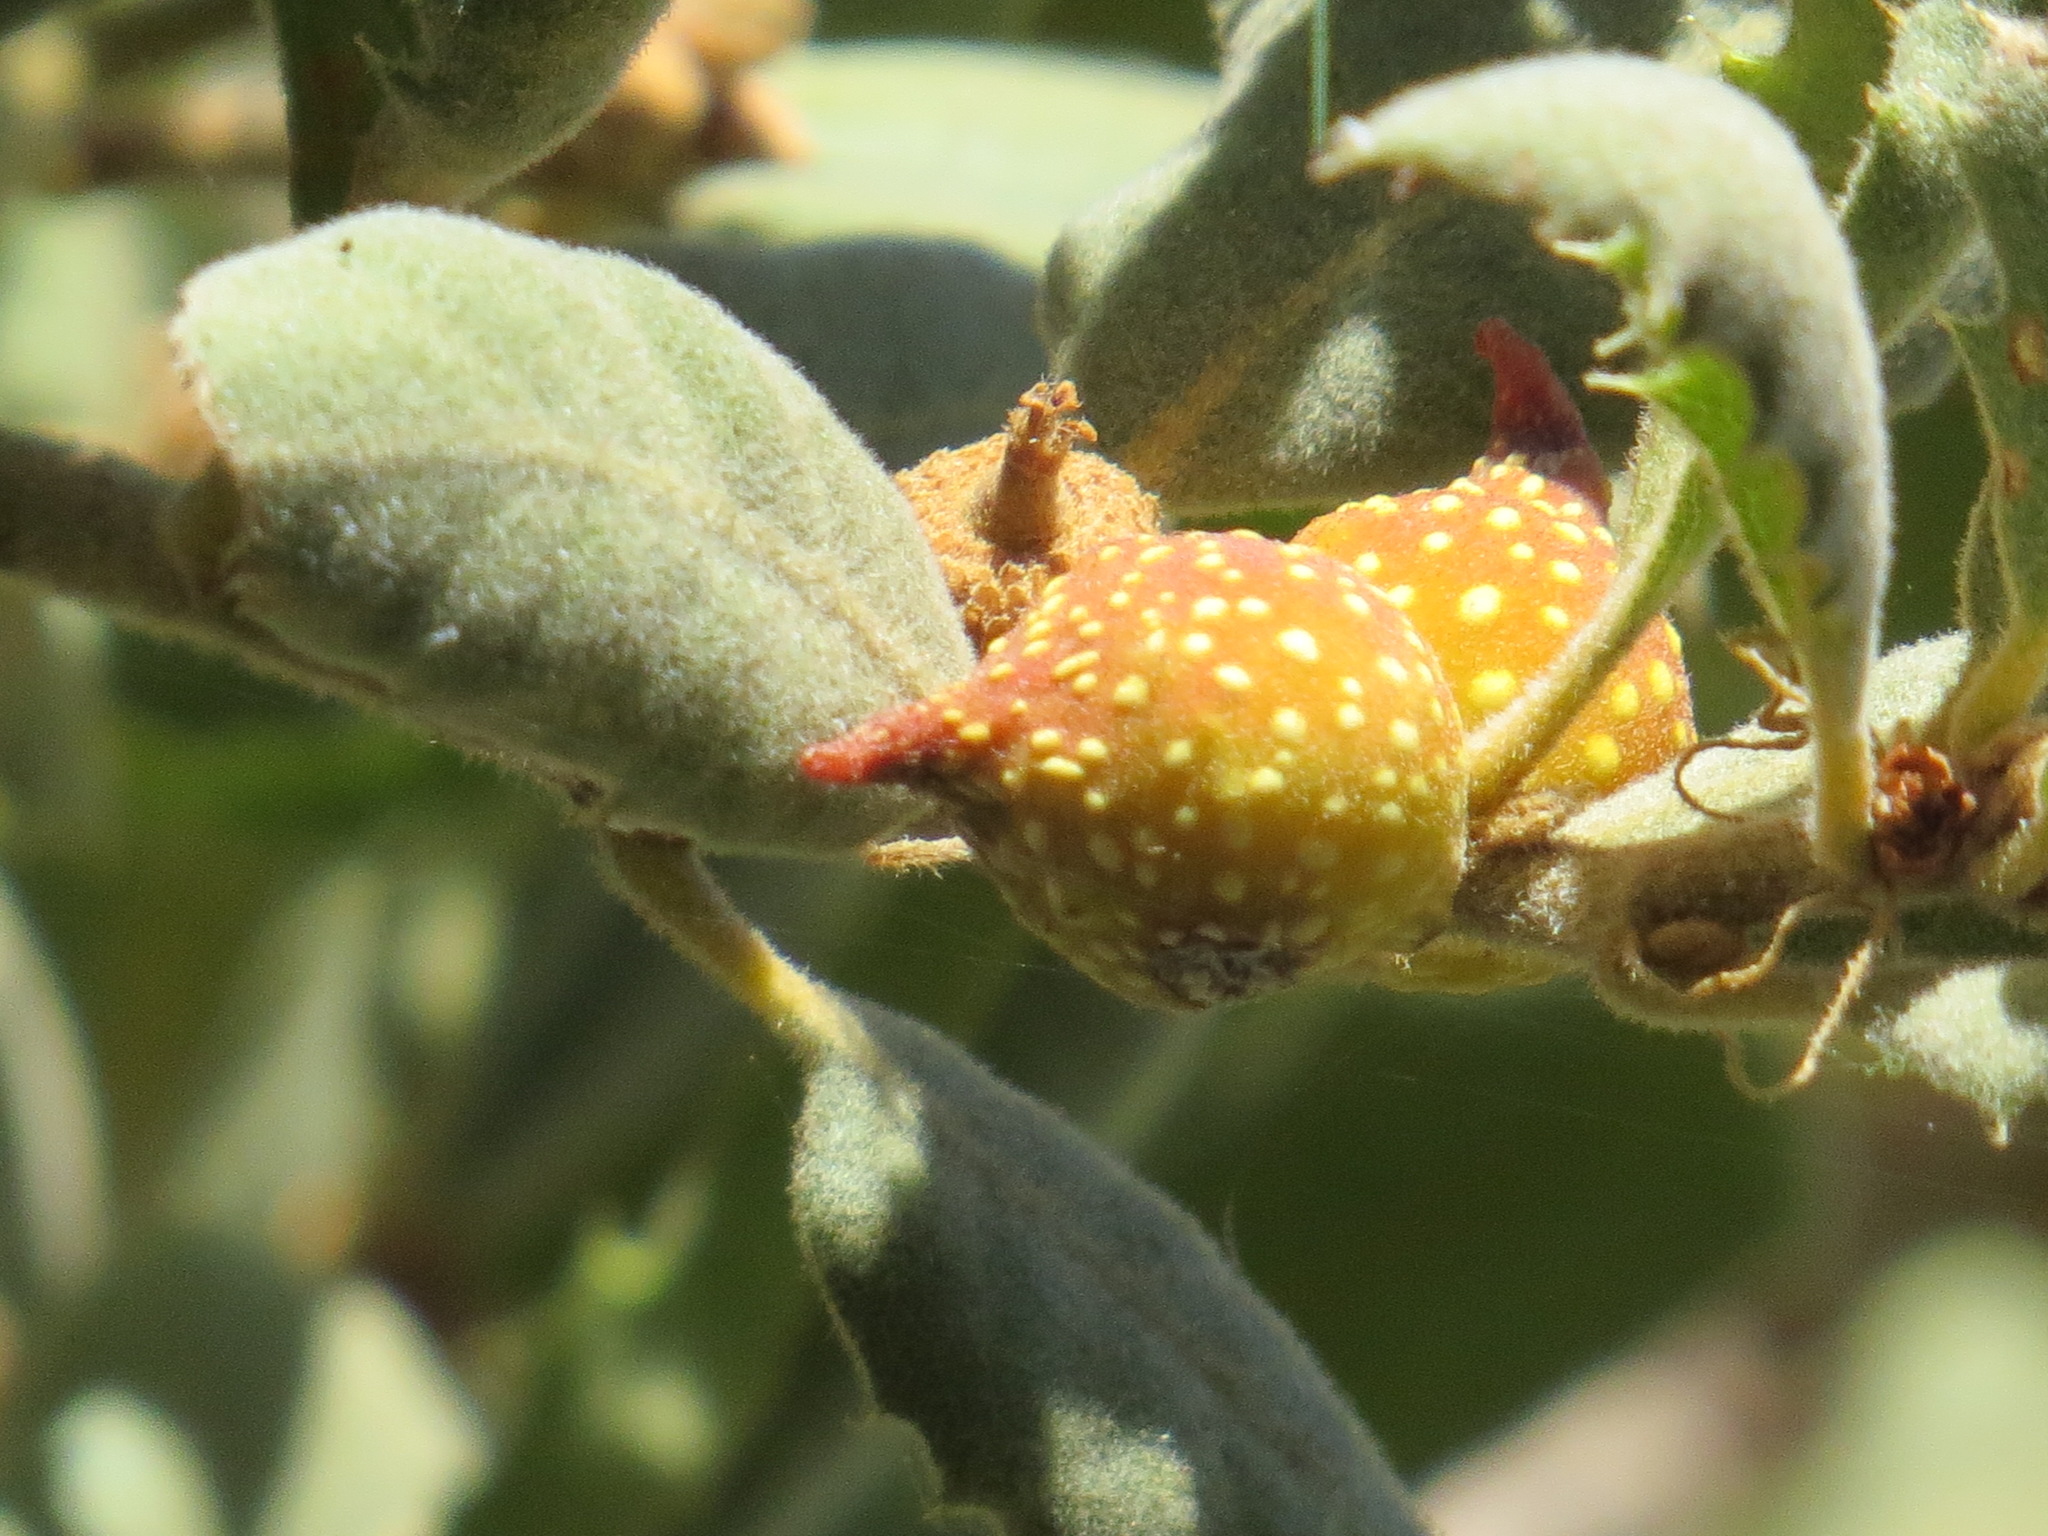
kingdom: Animalia
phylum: Arthropoda
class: Insecta
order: Hymenoptera
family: Cynipidae
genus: Burnettweldia
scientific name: Burnettweldia
